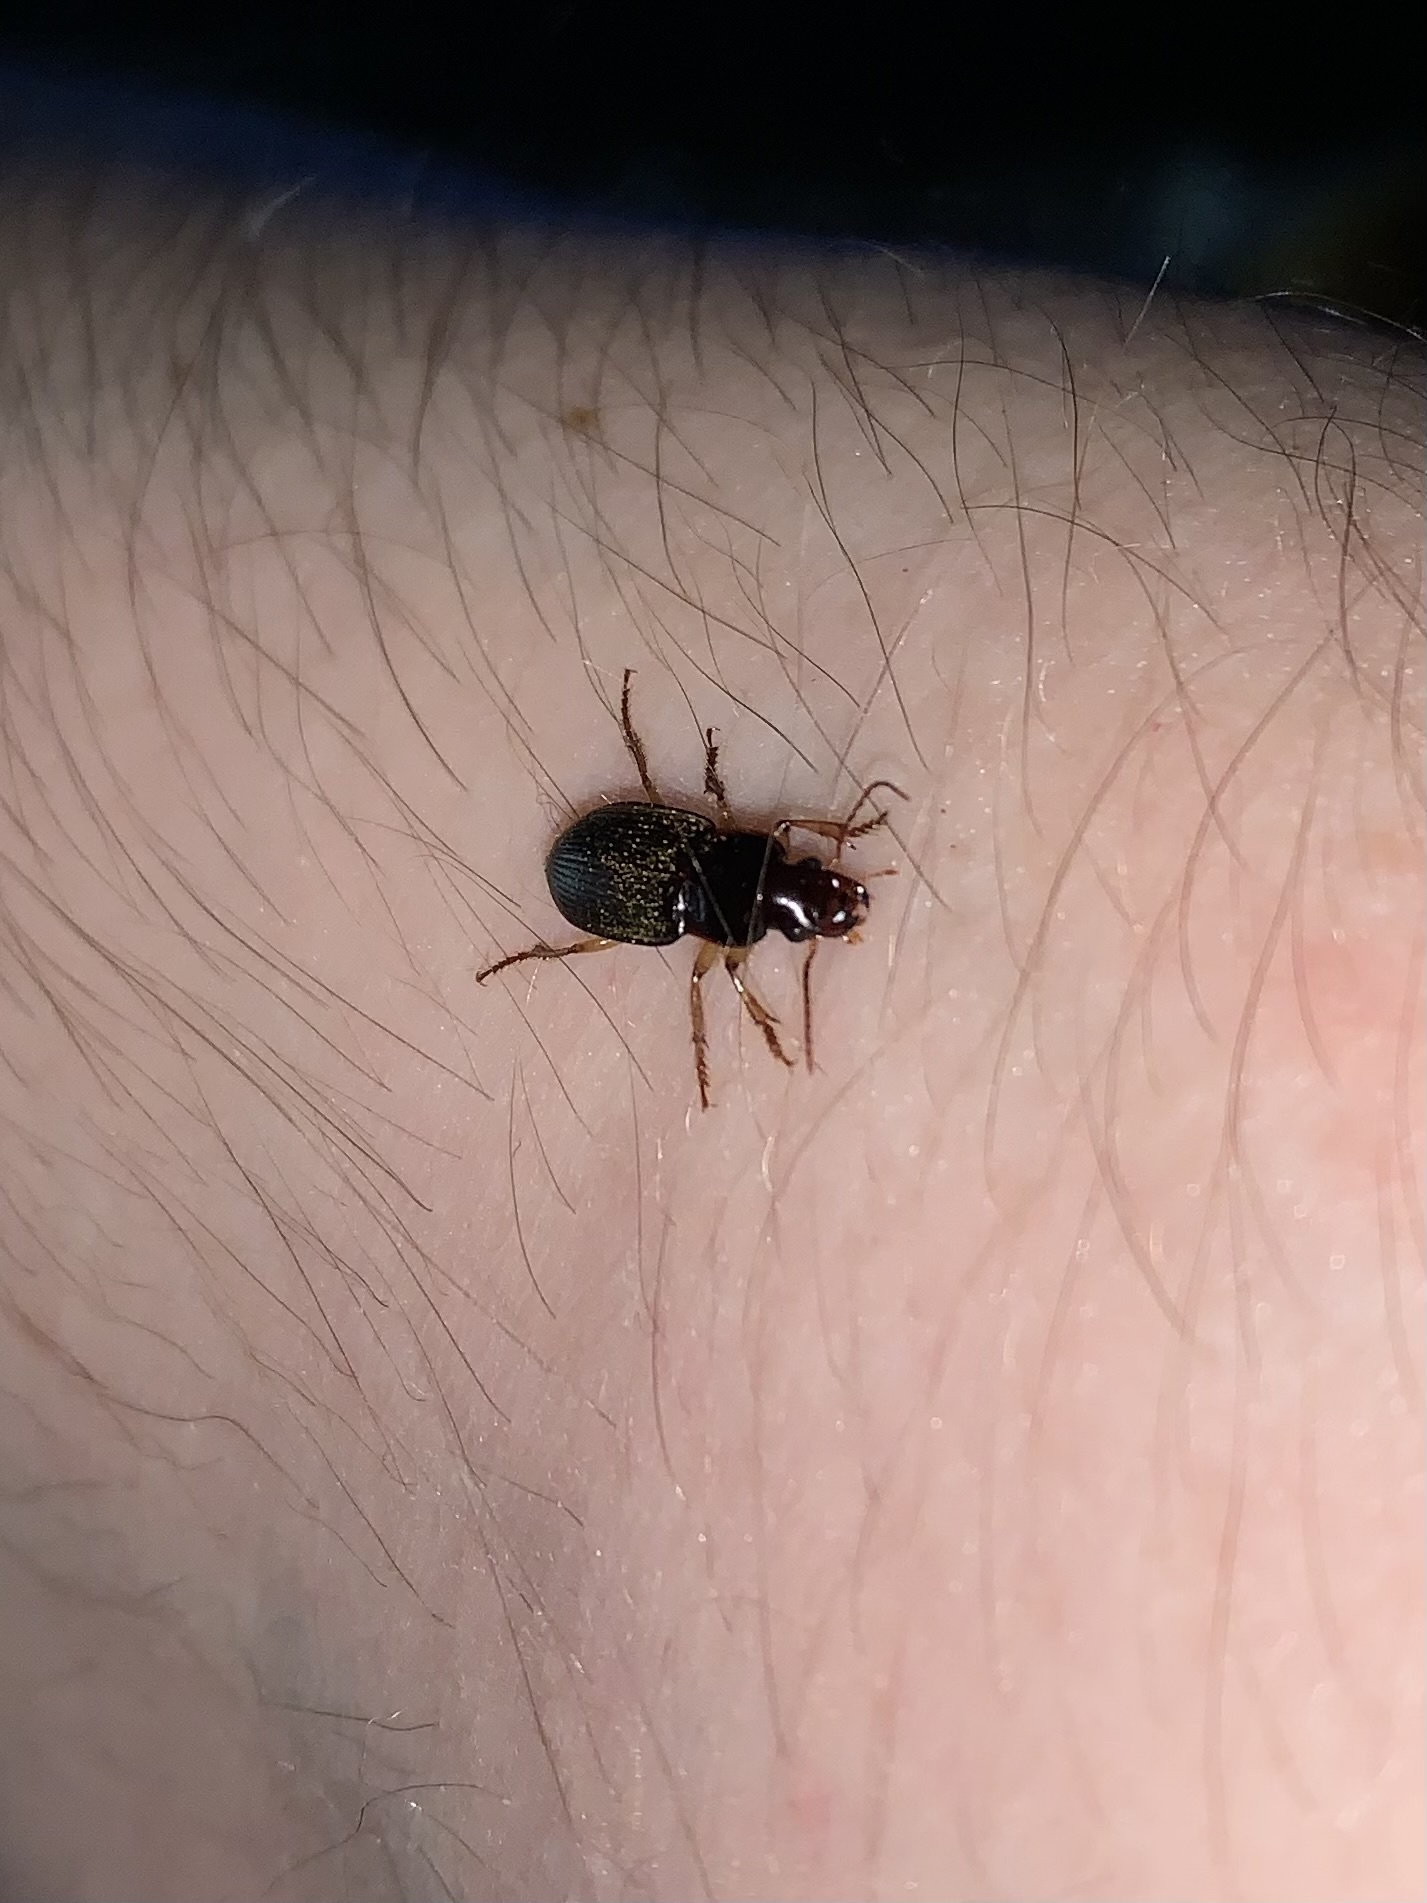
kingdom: Animalia
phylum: Arthropoda
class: Insecta
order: Coleoptera
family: Carabidae
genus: Harpalus
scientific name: Harpalus rufipes
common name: Strawberry harp ground beetle
